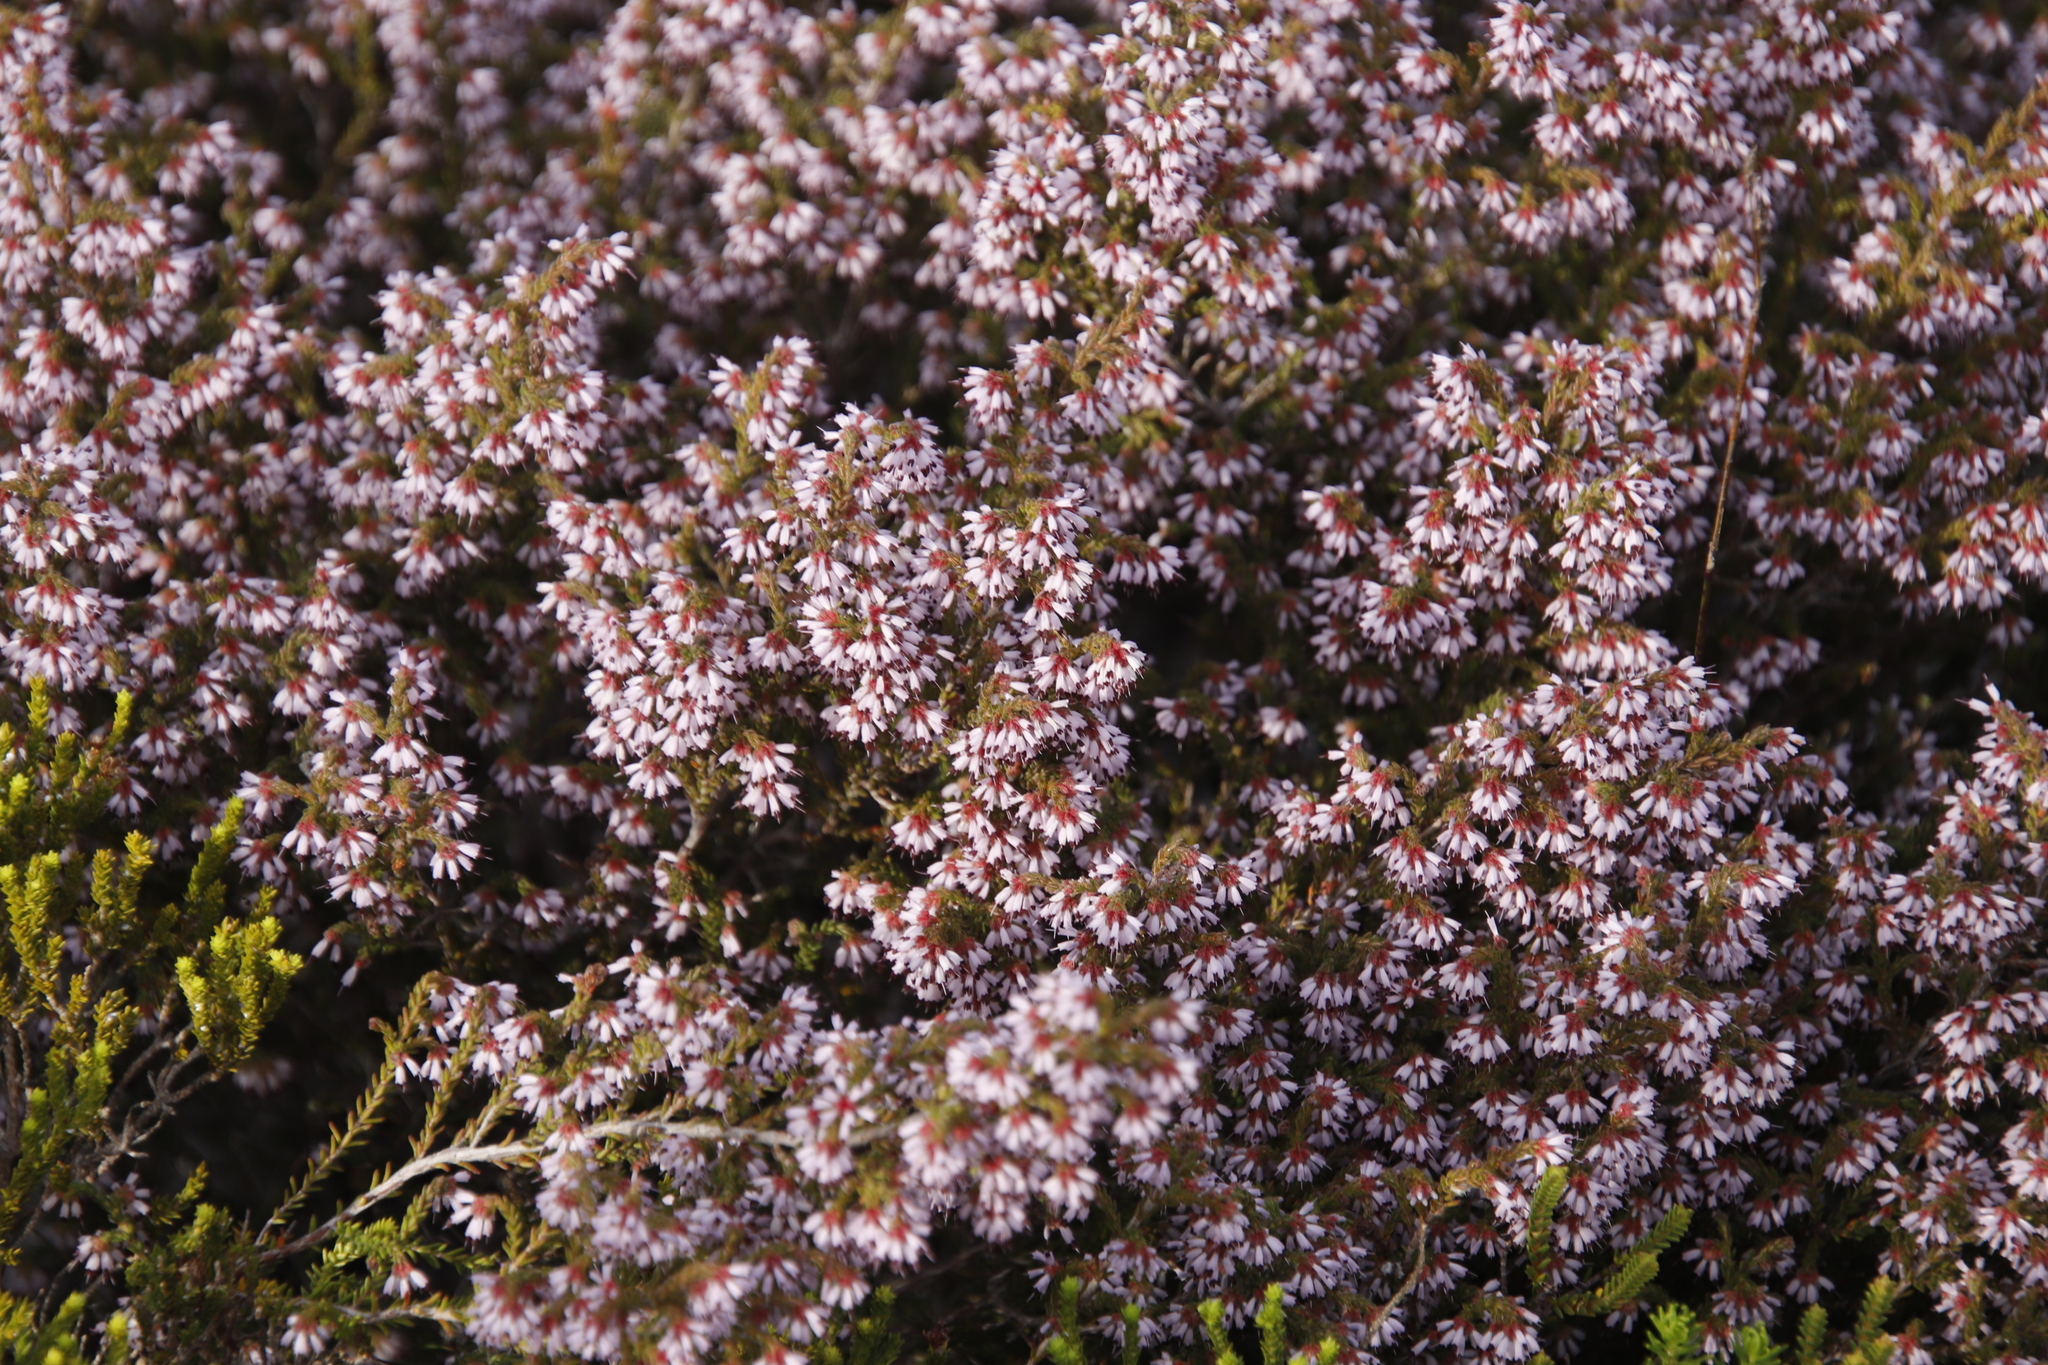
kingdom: Plantae
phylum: Tracheophyta
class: Magnoliopsida
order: Ericales
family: Ericaceae
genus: Erica
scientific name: Erica glabella
